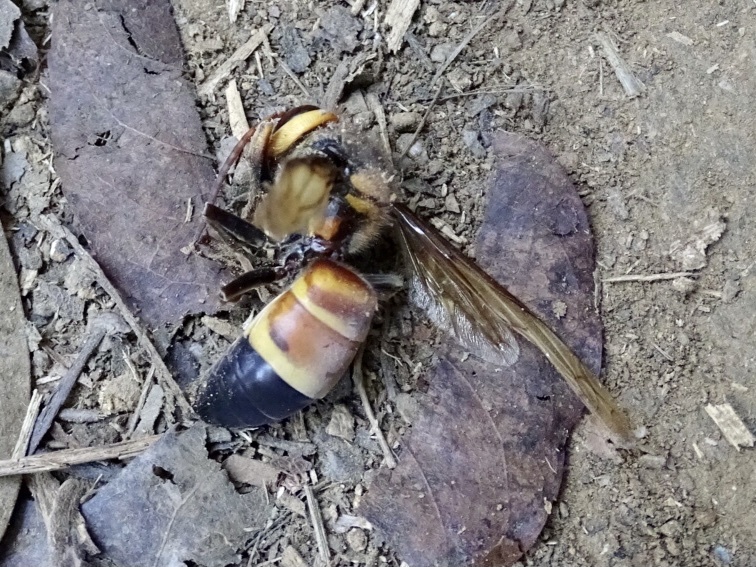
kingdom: Animalia
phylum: Arthropoda
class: Insecta
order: Hymenoptera
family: Vespidae
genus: Vespa
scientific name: Vespa soror
